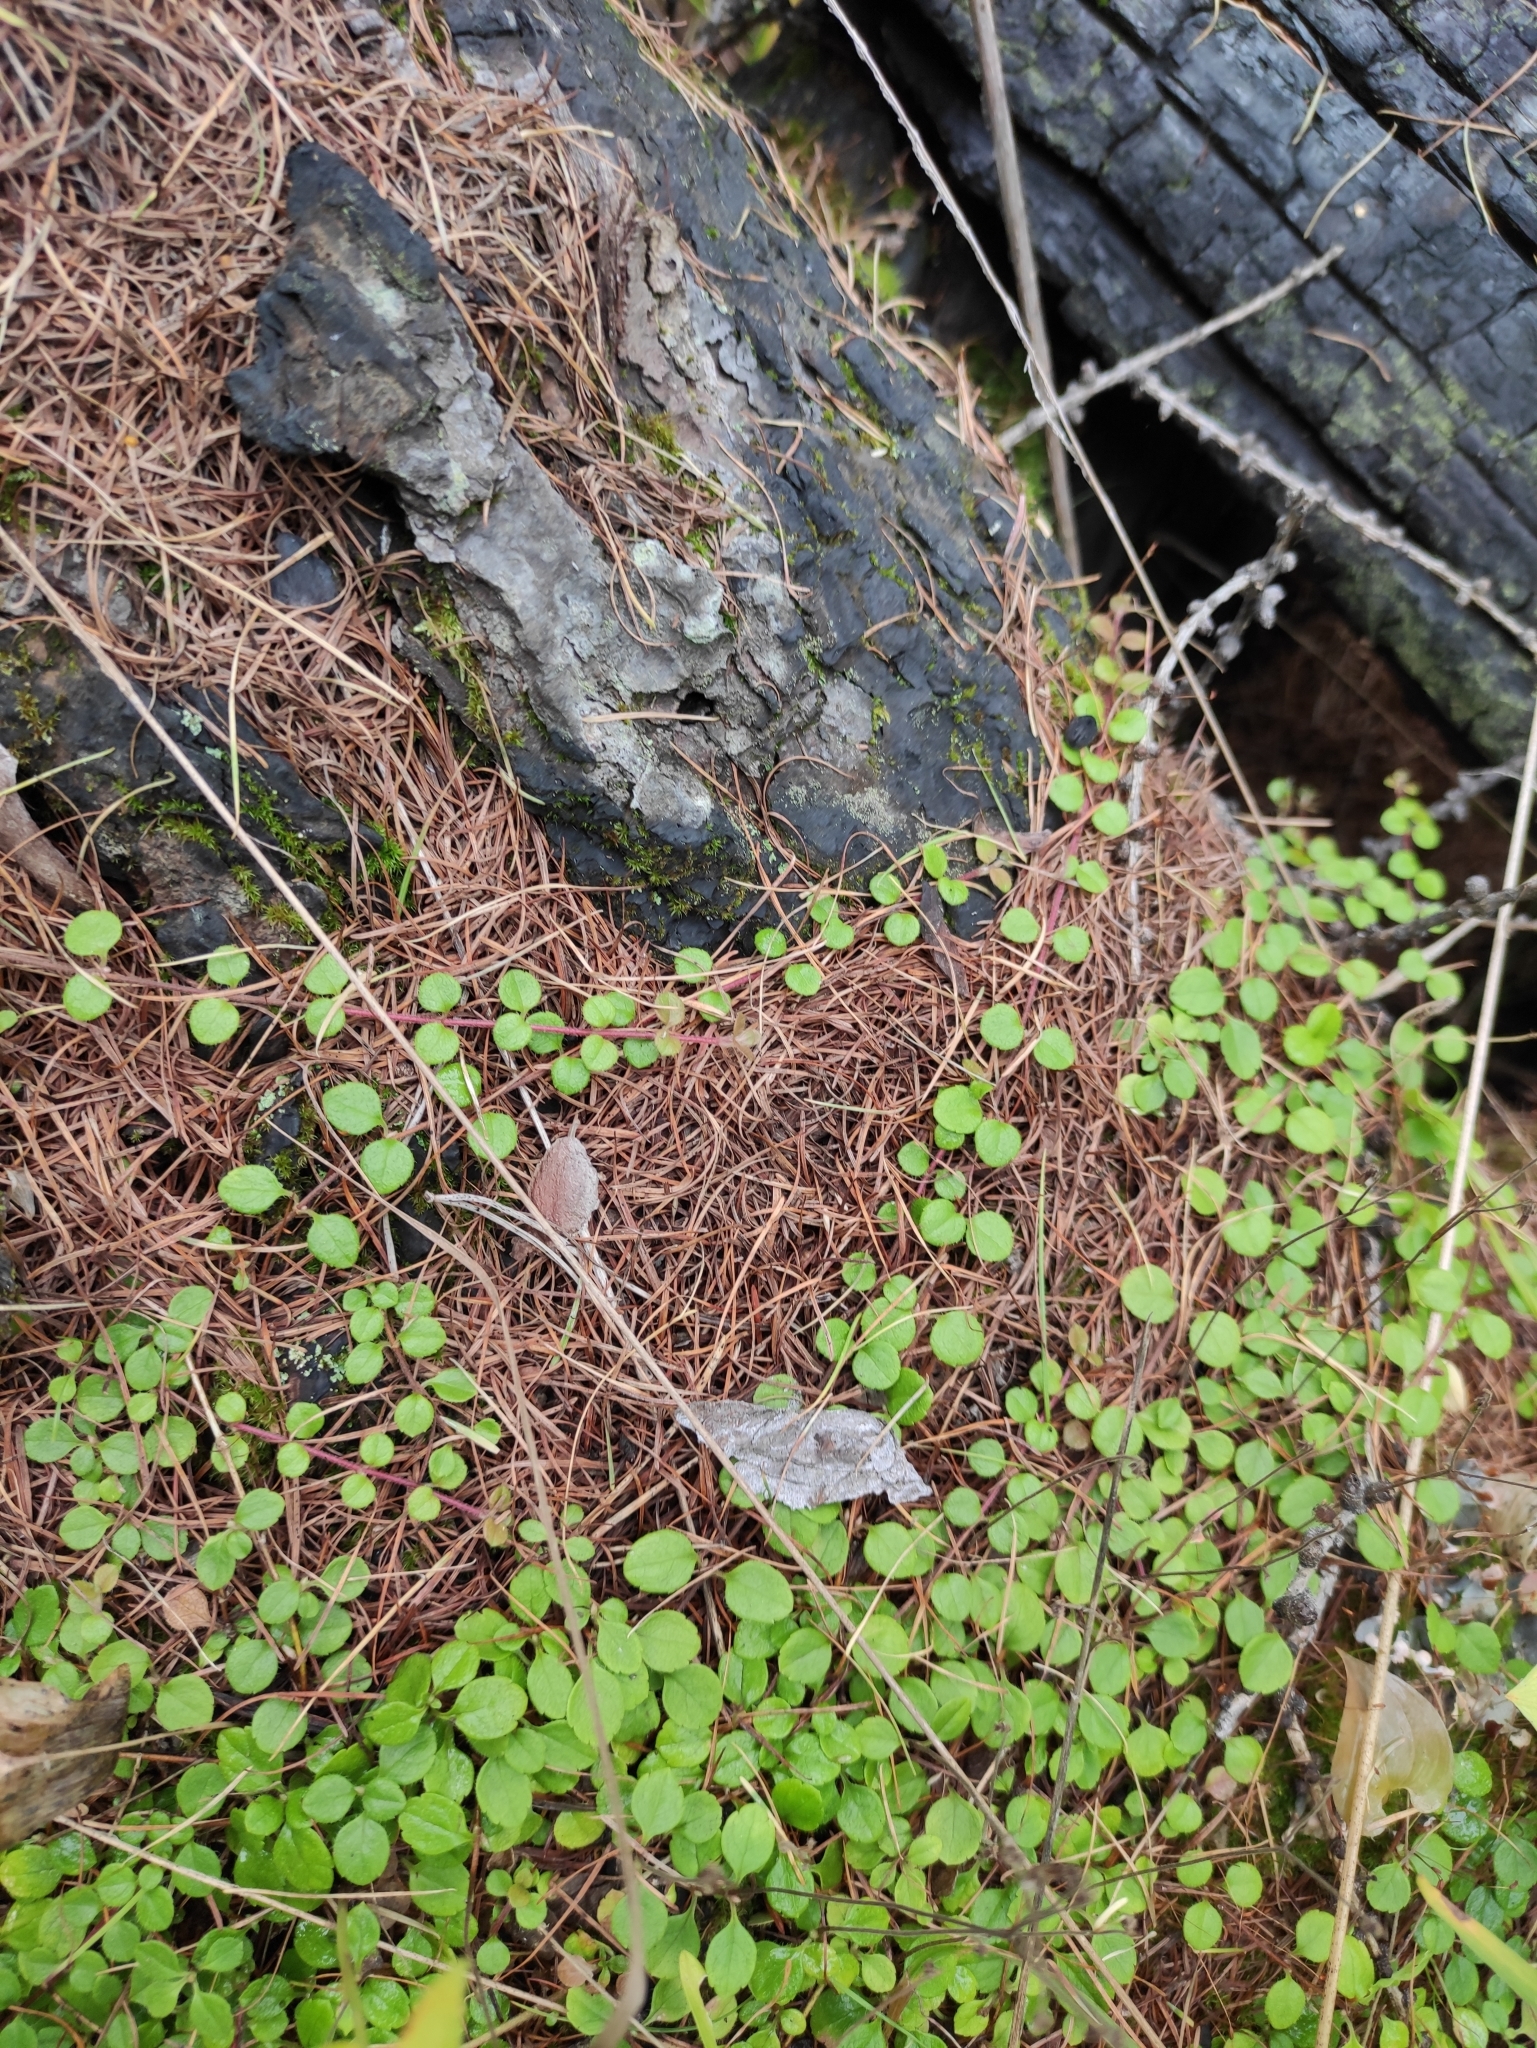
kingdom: Plantae
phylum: Tracheophyta
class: Magnoliopsida
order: Dipsacales
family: Caprifoliaceae
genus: Linnaea
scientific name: Linnaea borealis
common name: Twinflower
